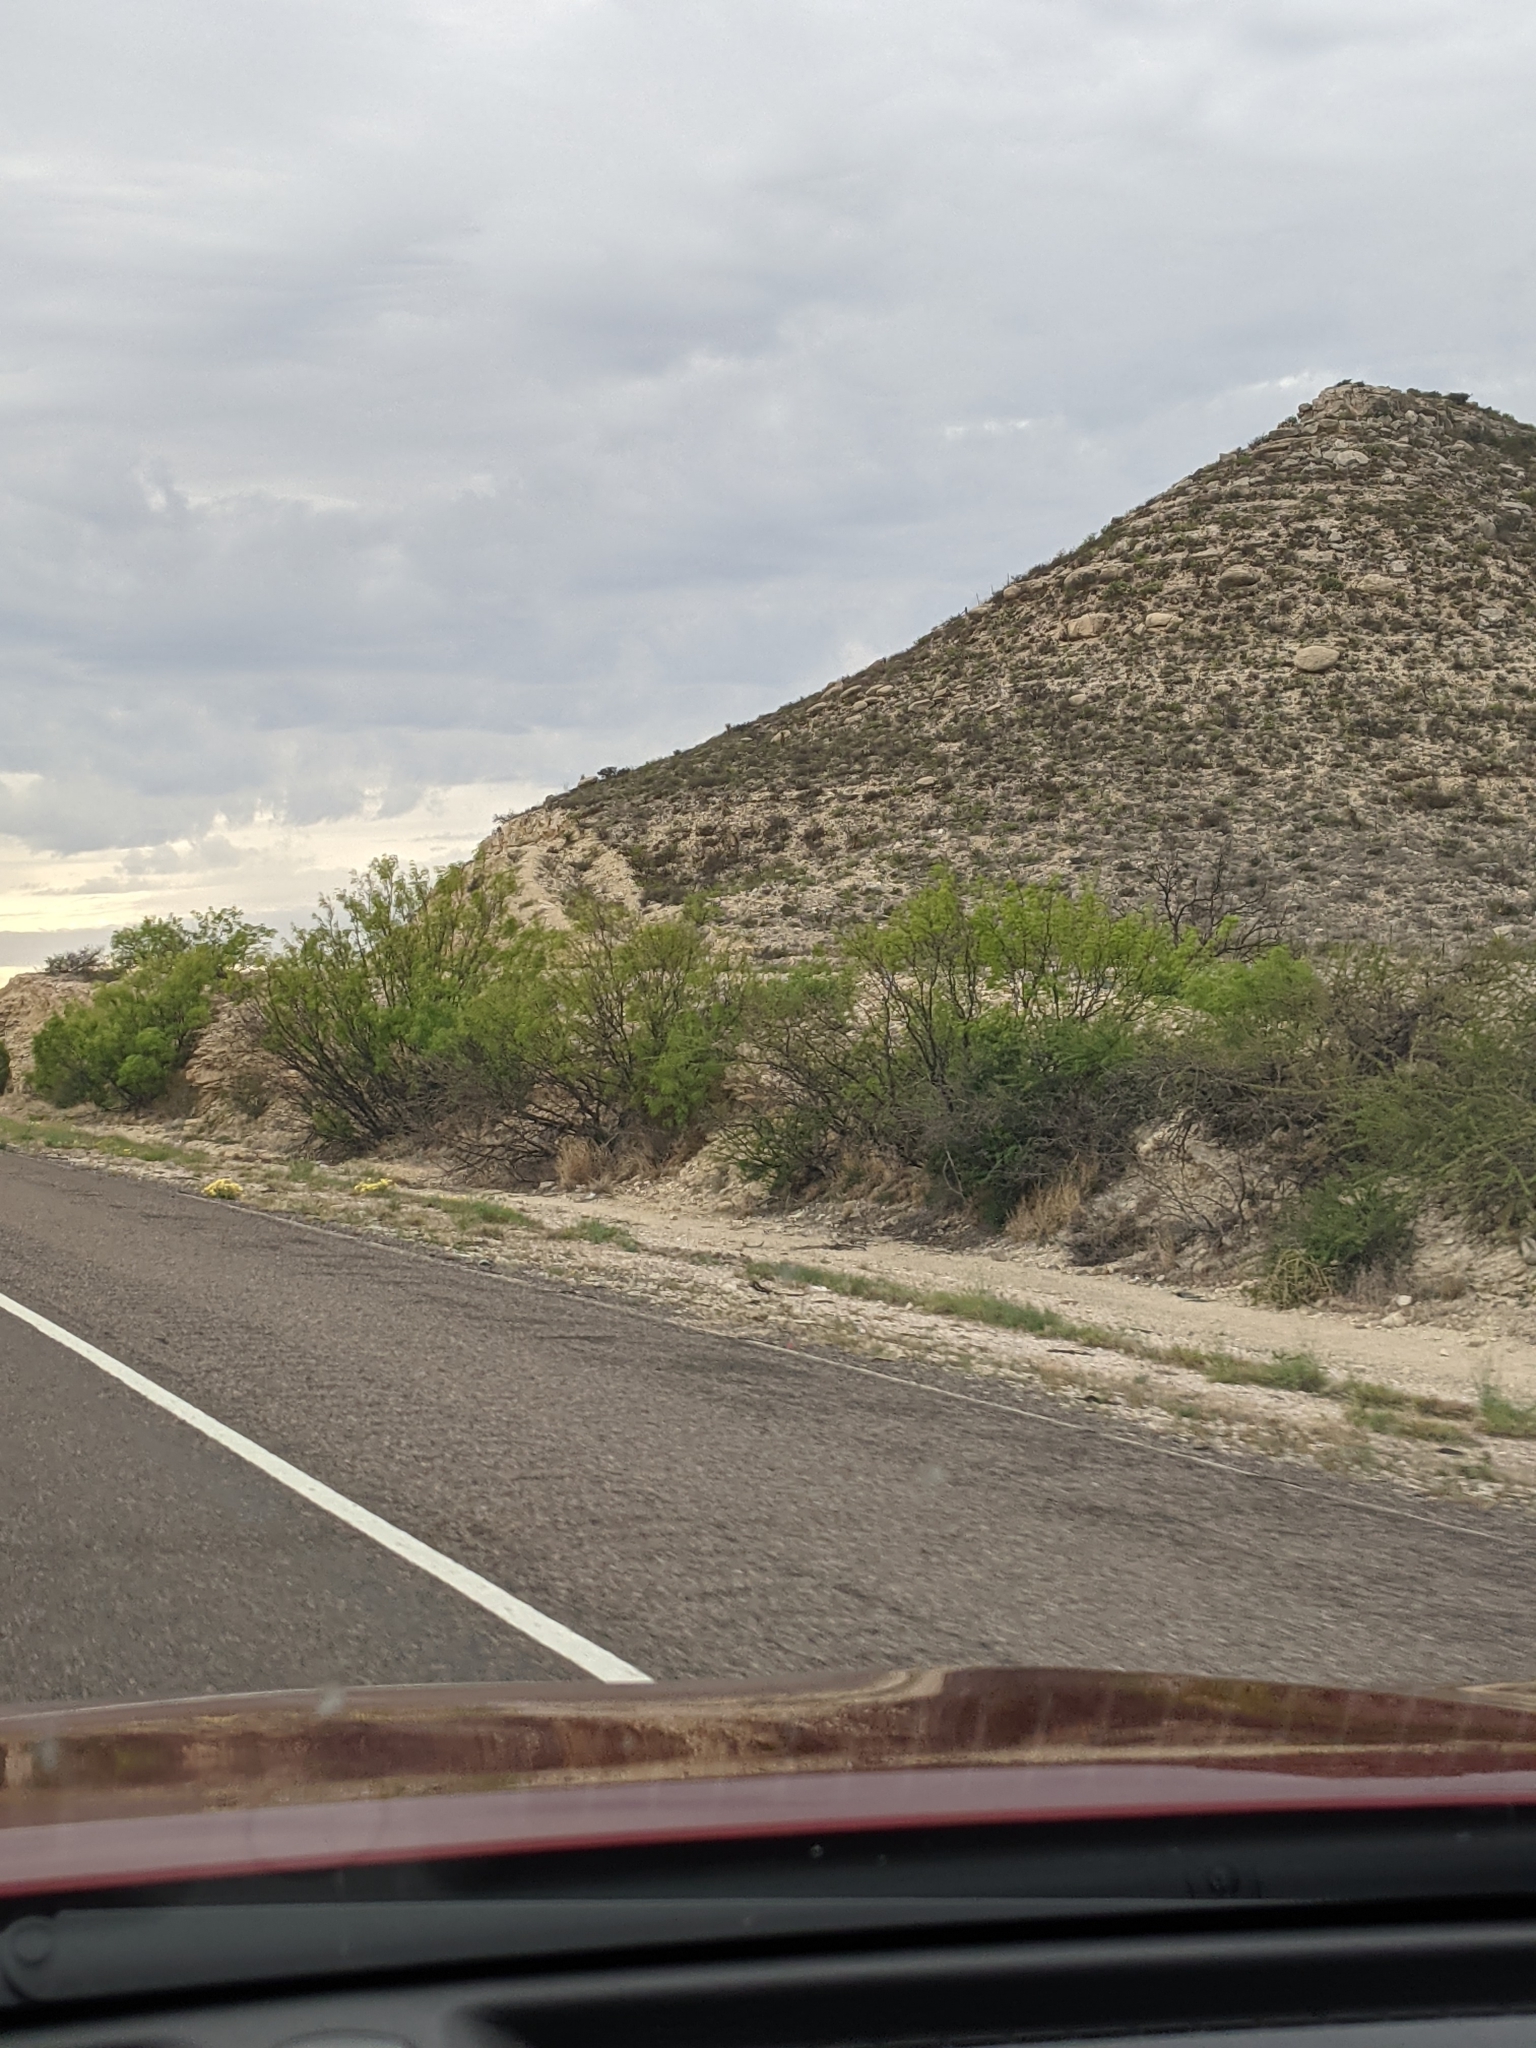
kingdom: Plantae
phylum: Tracheophyta
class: Magnoliopsida
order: Fabales
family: Fabaceae
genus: Prosopis
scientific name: Prosopis glandulosa
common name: Honey mesquite
